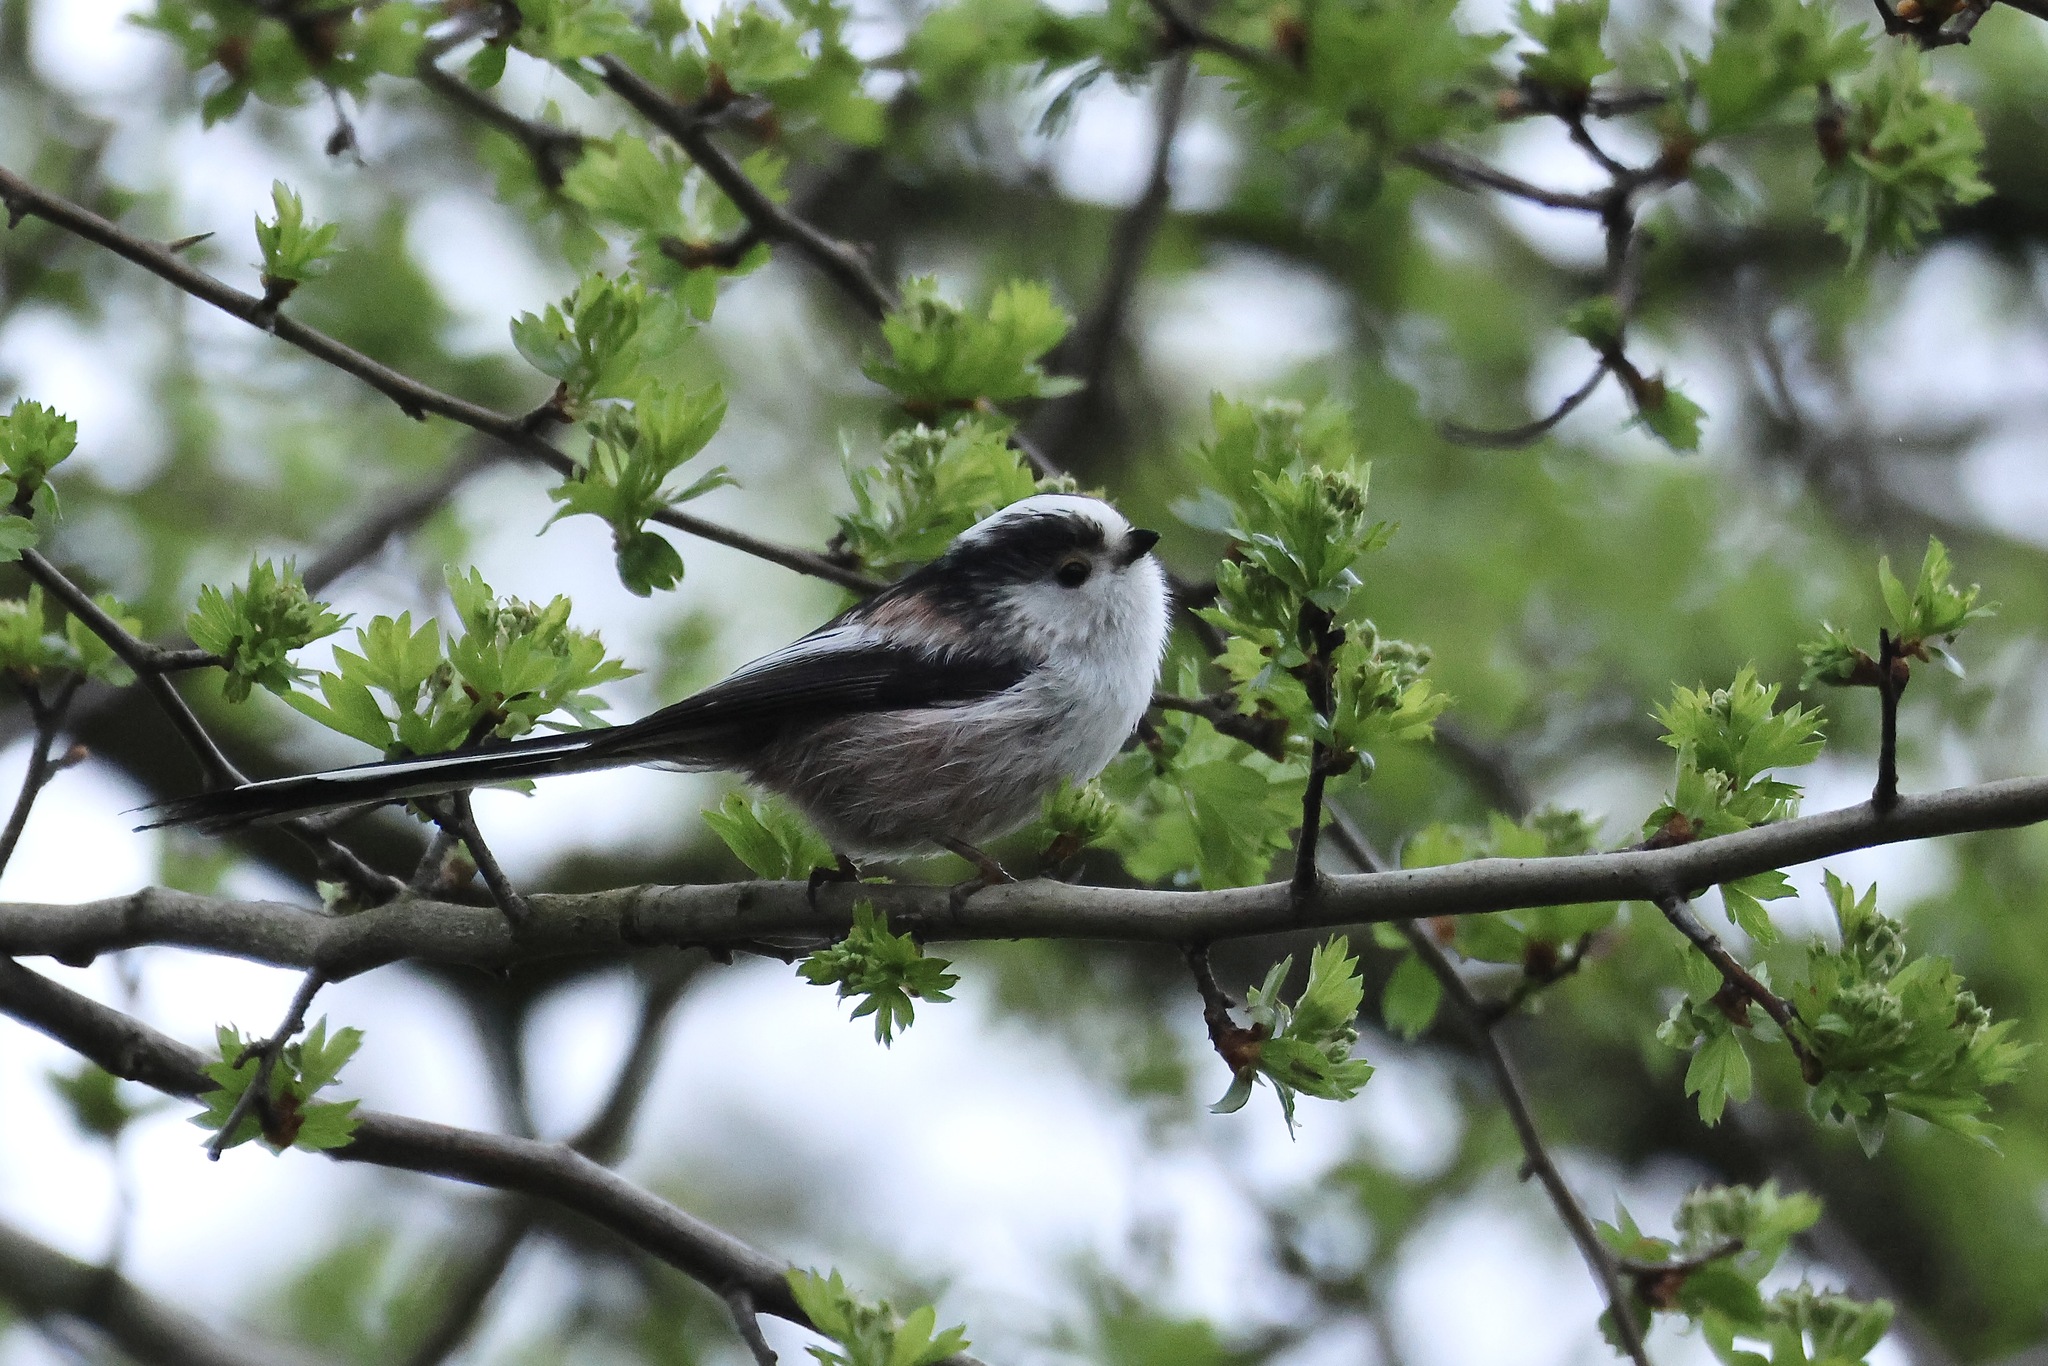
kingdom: Animalia
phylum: Chordata
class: Aves
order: Passeriformes
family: Aegithalidae
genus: Aegithalos
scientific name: Aegithalos caudatus
